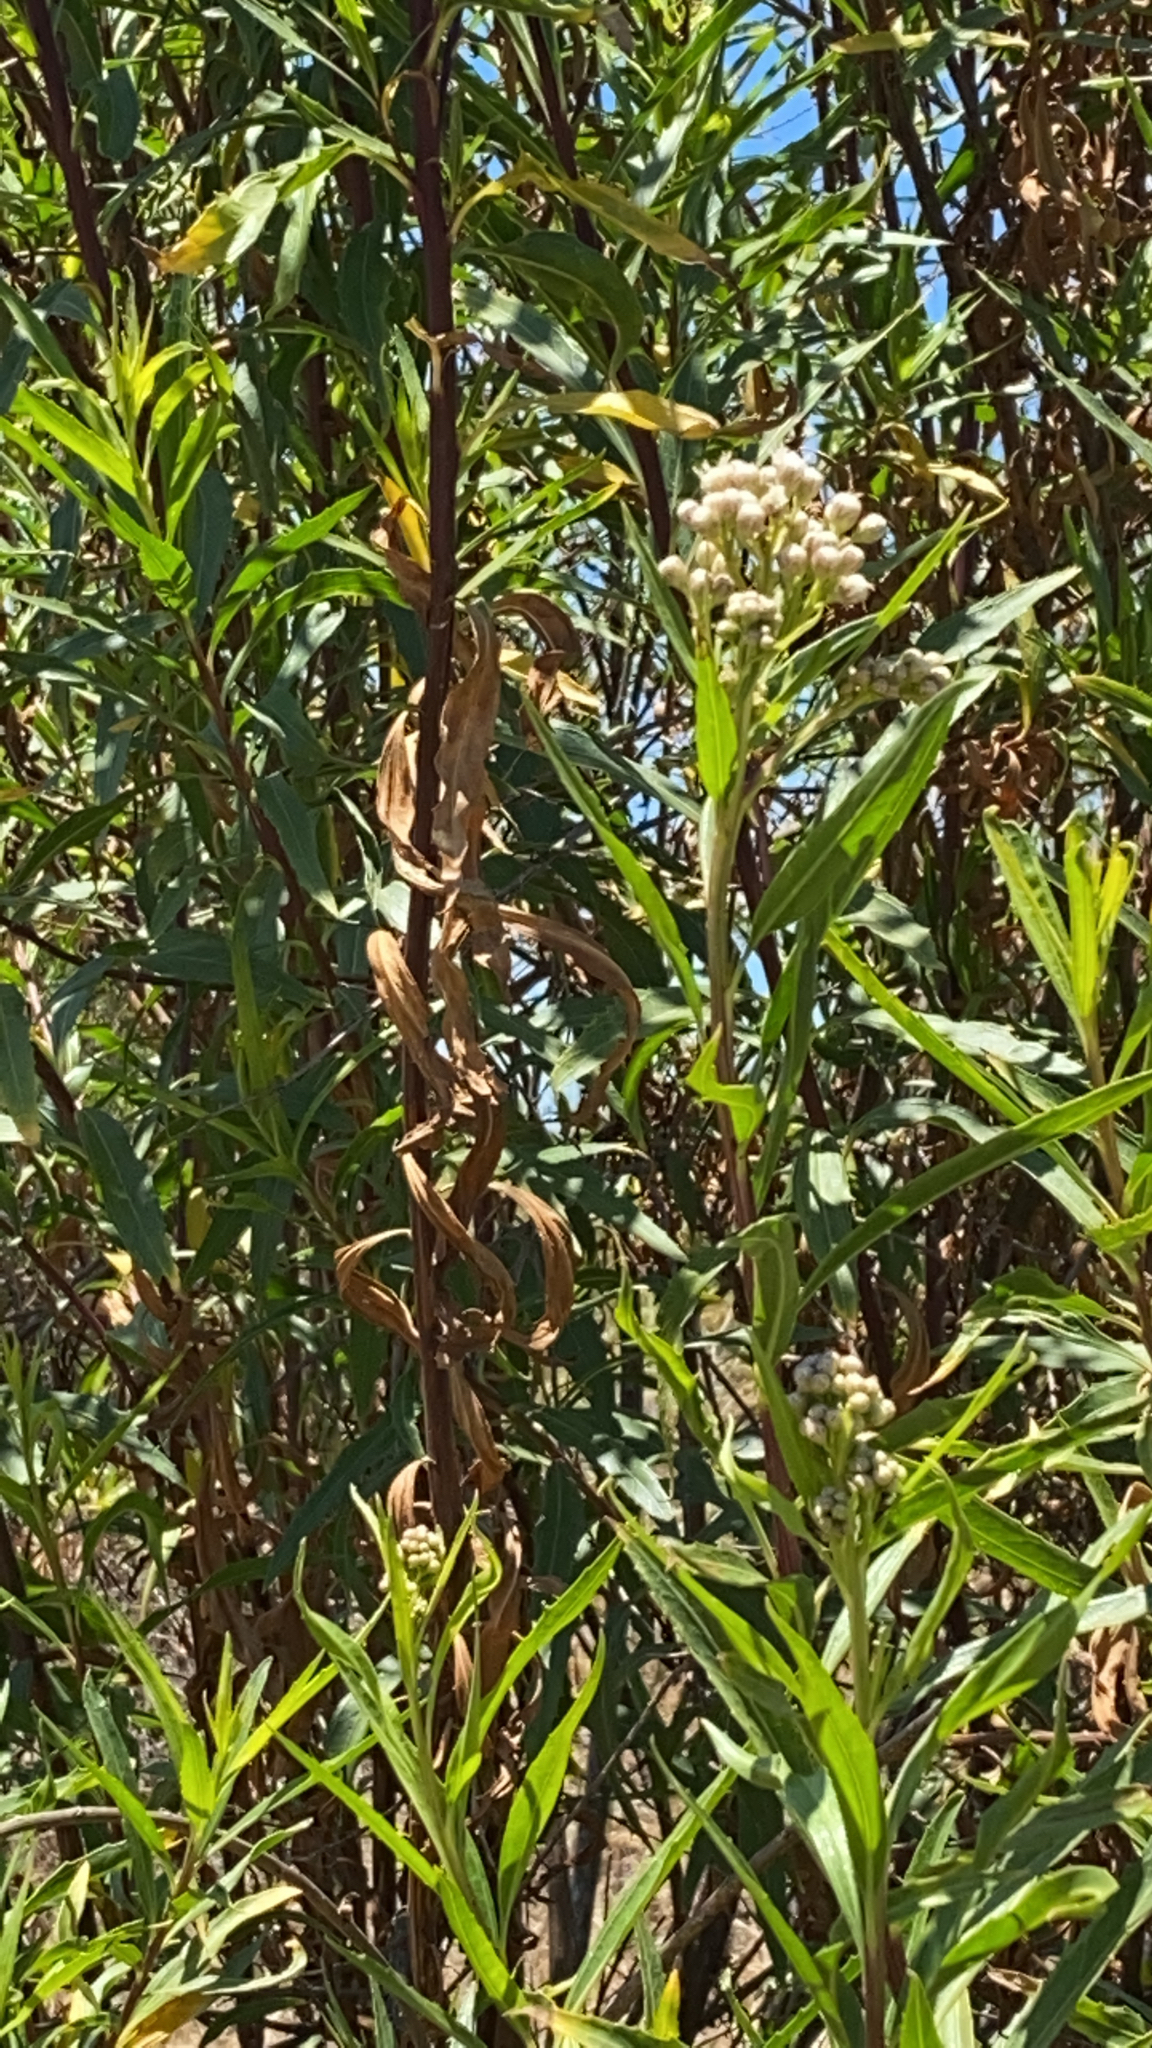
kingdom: Plantae
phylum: Tracheophyta
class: Magnoliopsida
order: Asterales
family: Asteraceae
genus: Baccharis
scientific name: Baccharis salicifolia
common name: Sticky baccharis
